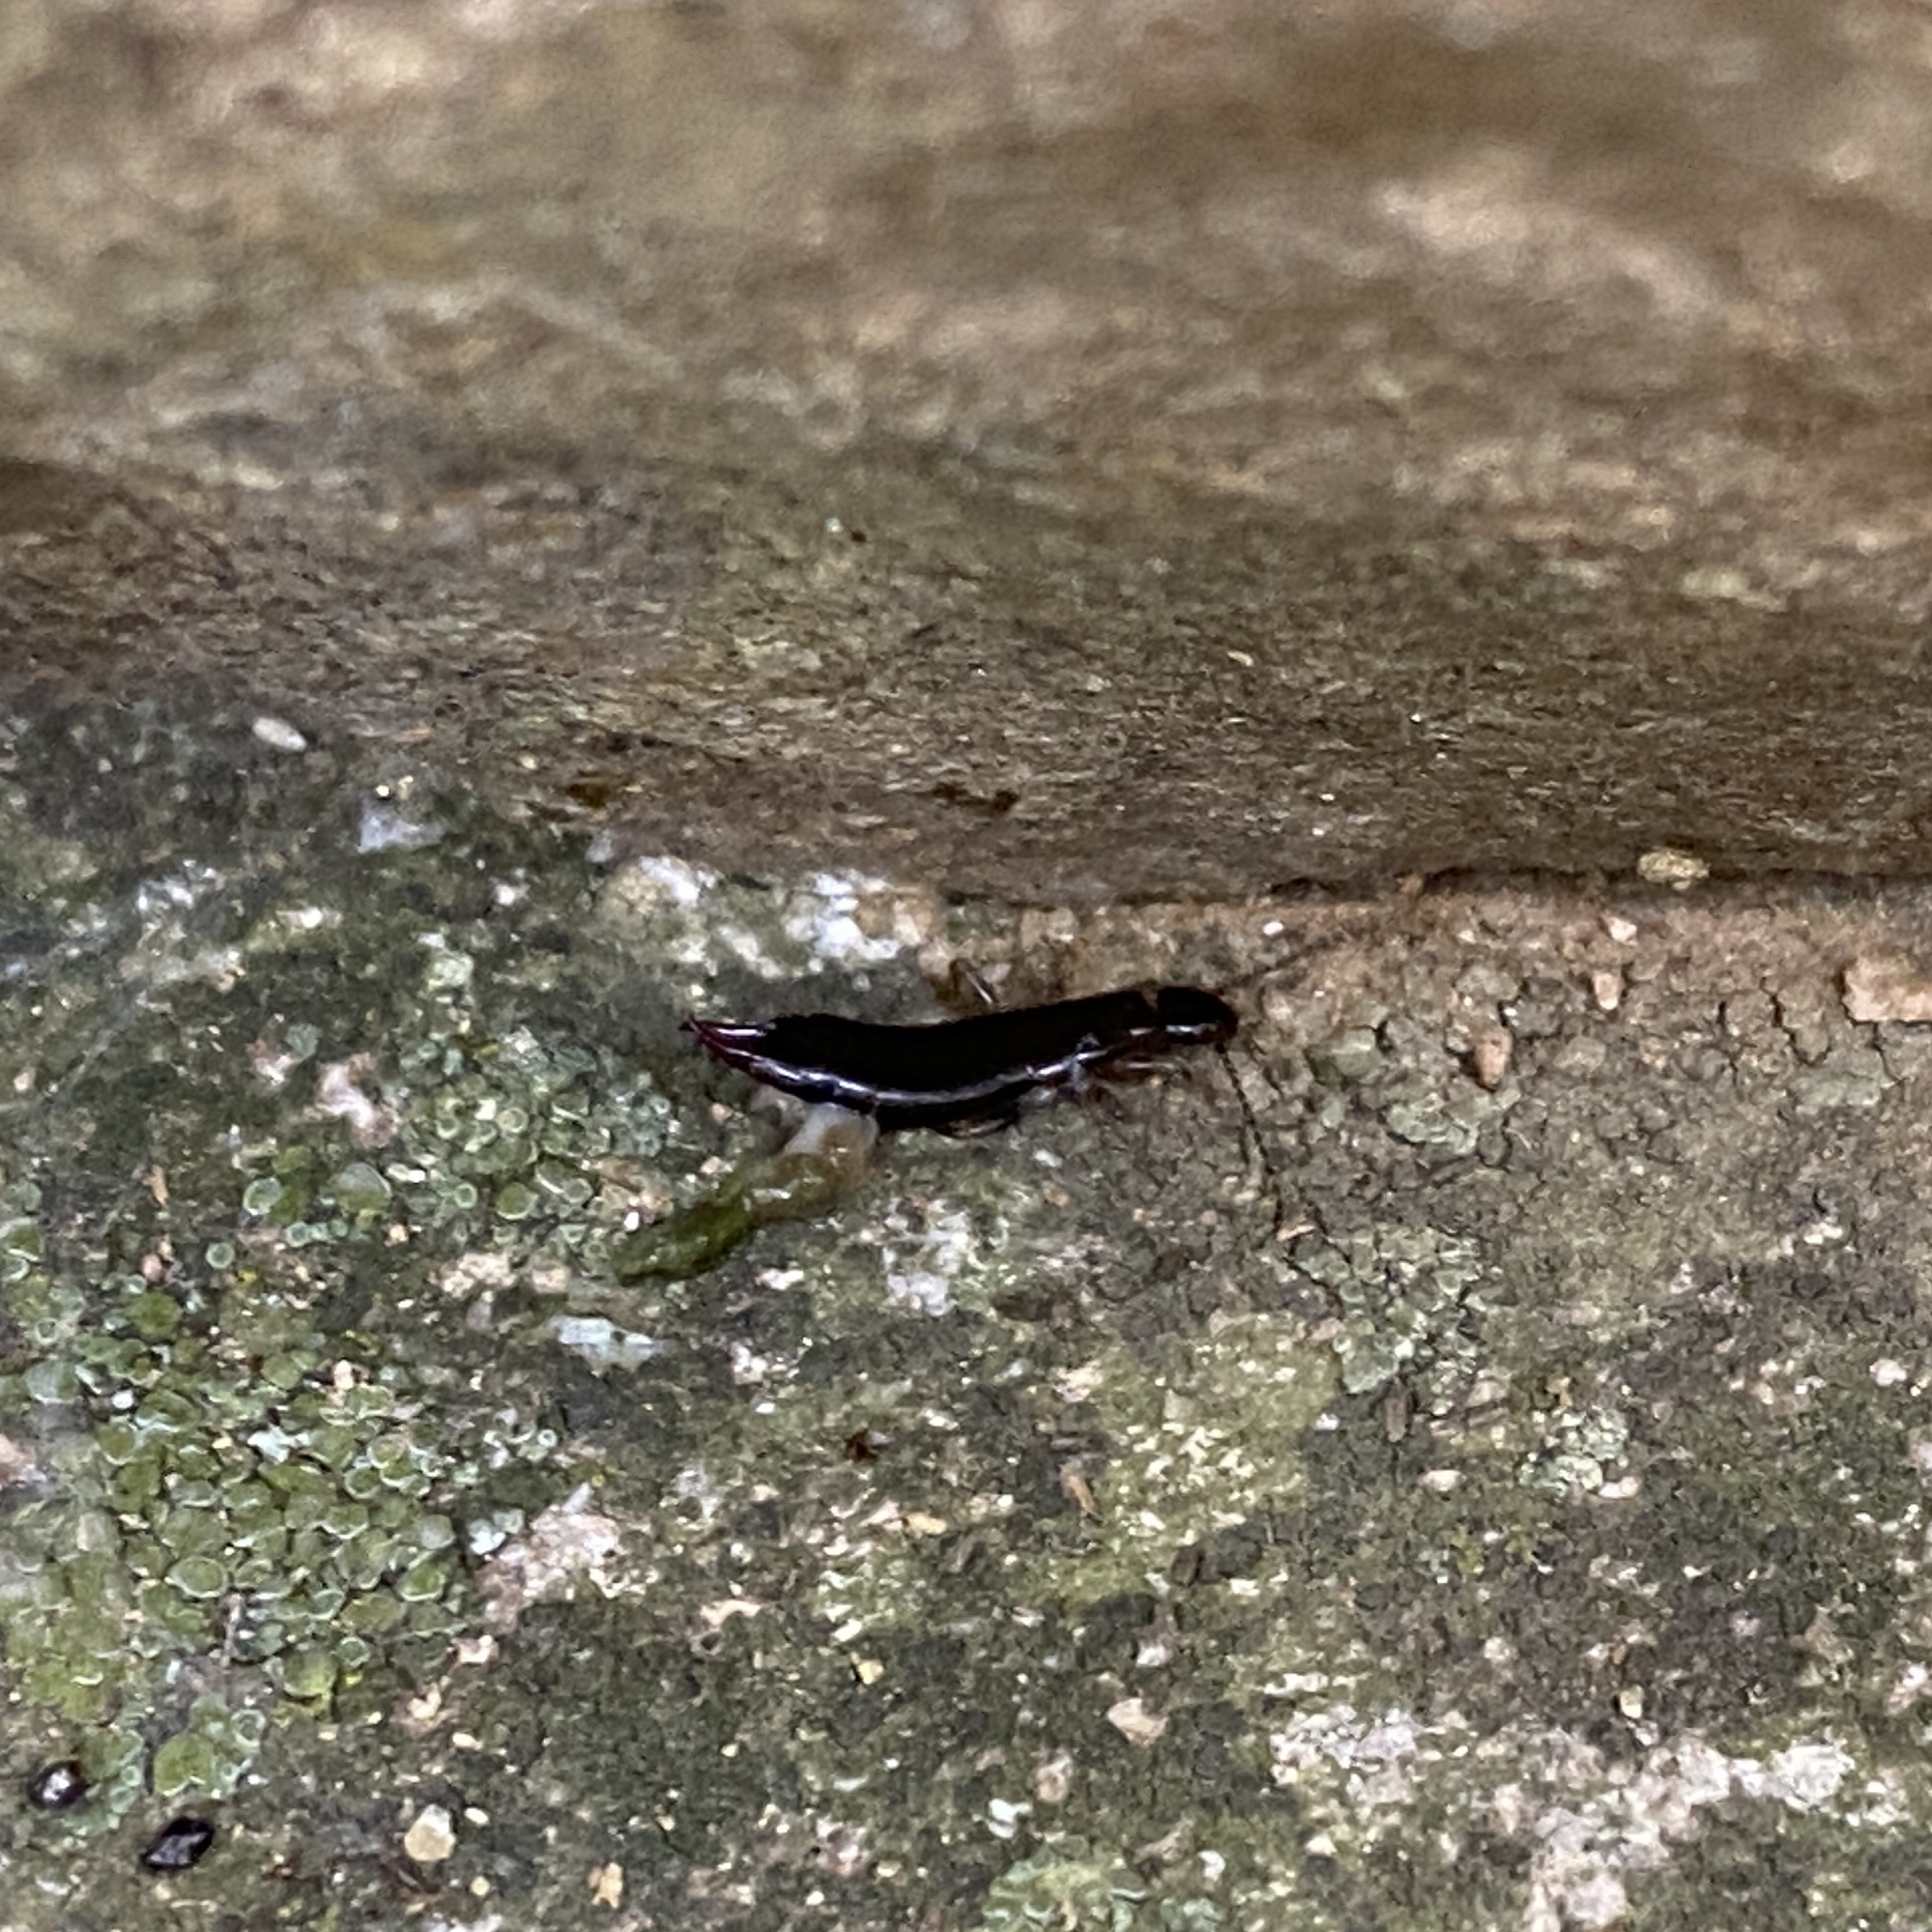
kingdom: Animalia
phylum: Arthropoda
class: Insecta
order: Dermaptera
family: Anisolabididae
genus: Euborellia
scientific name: Euborellia moesta
